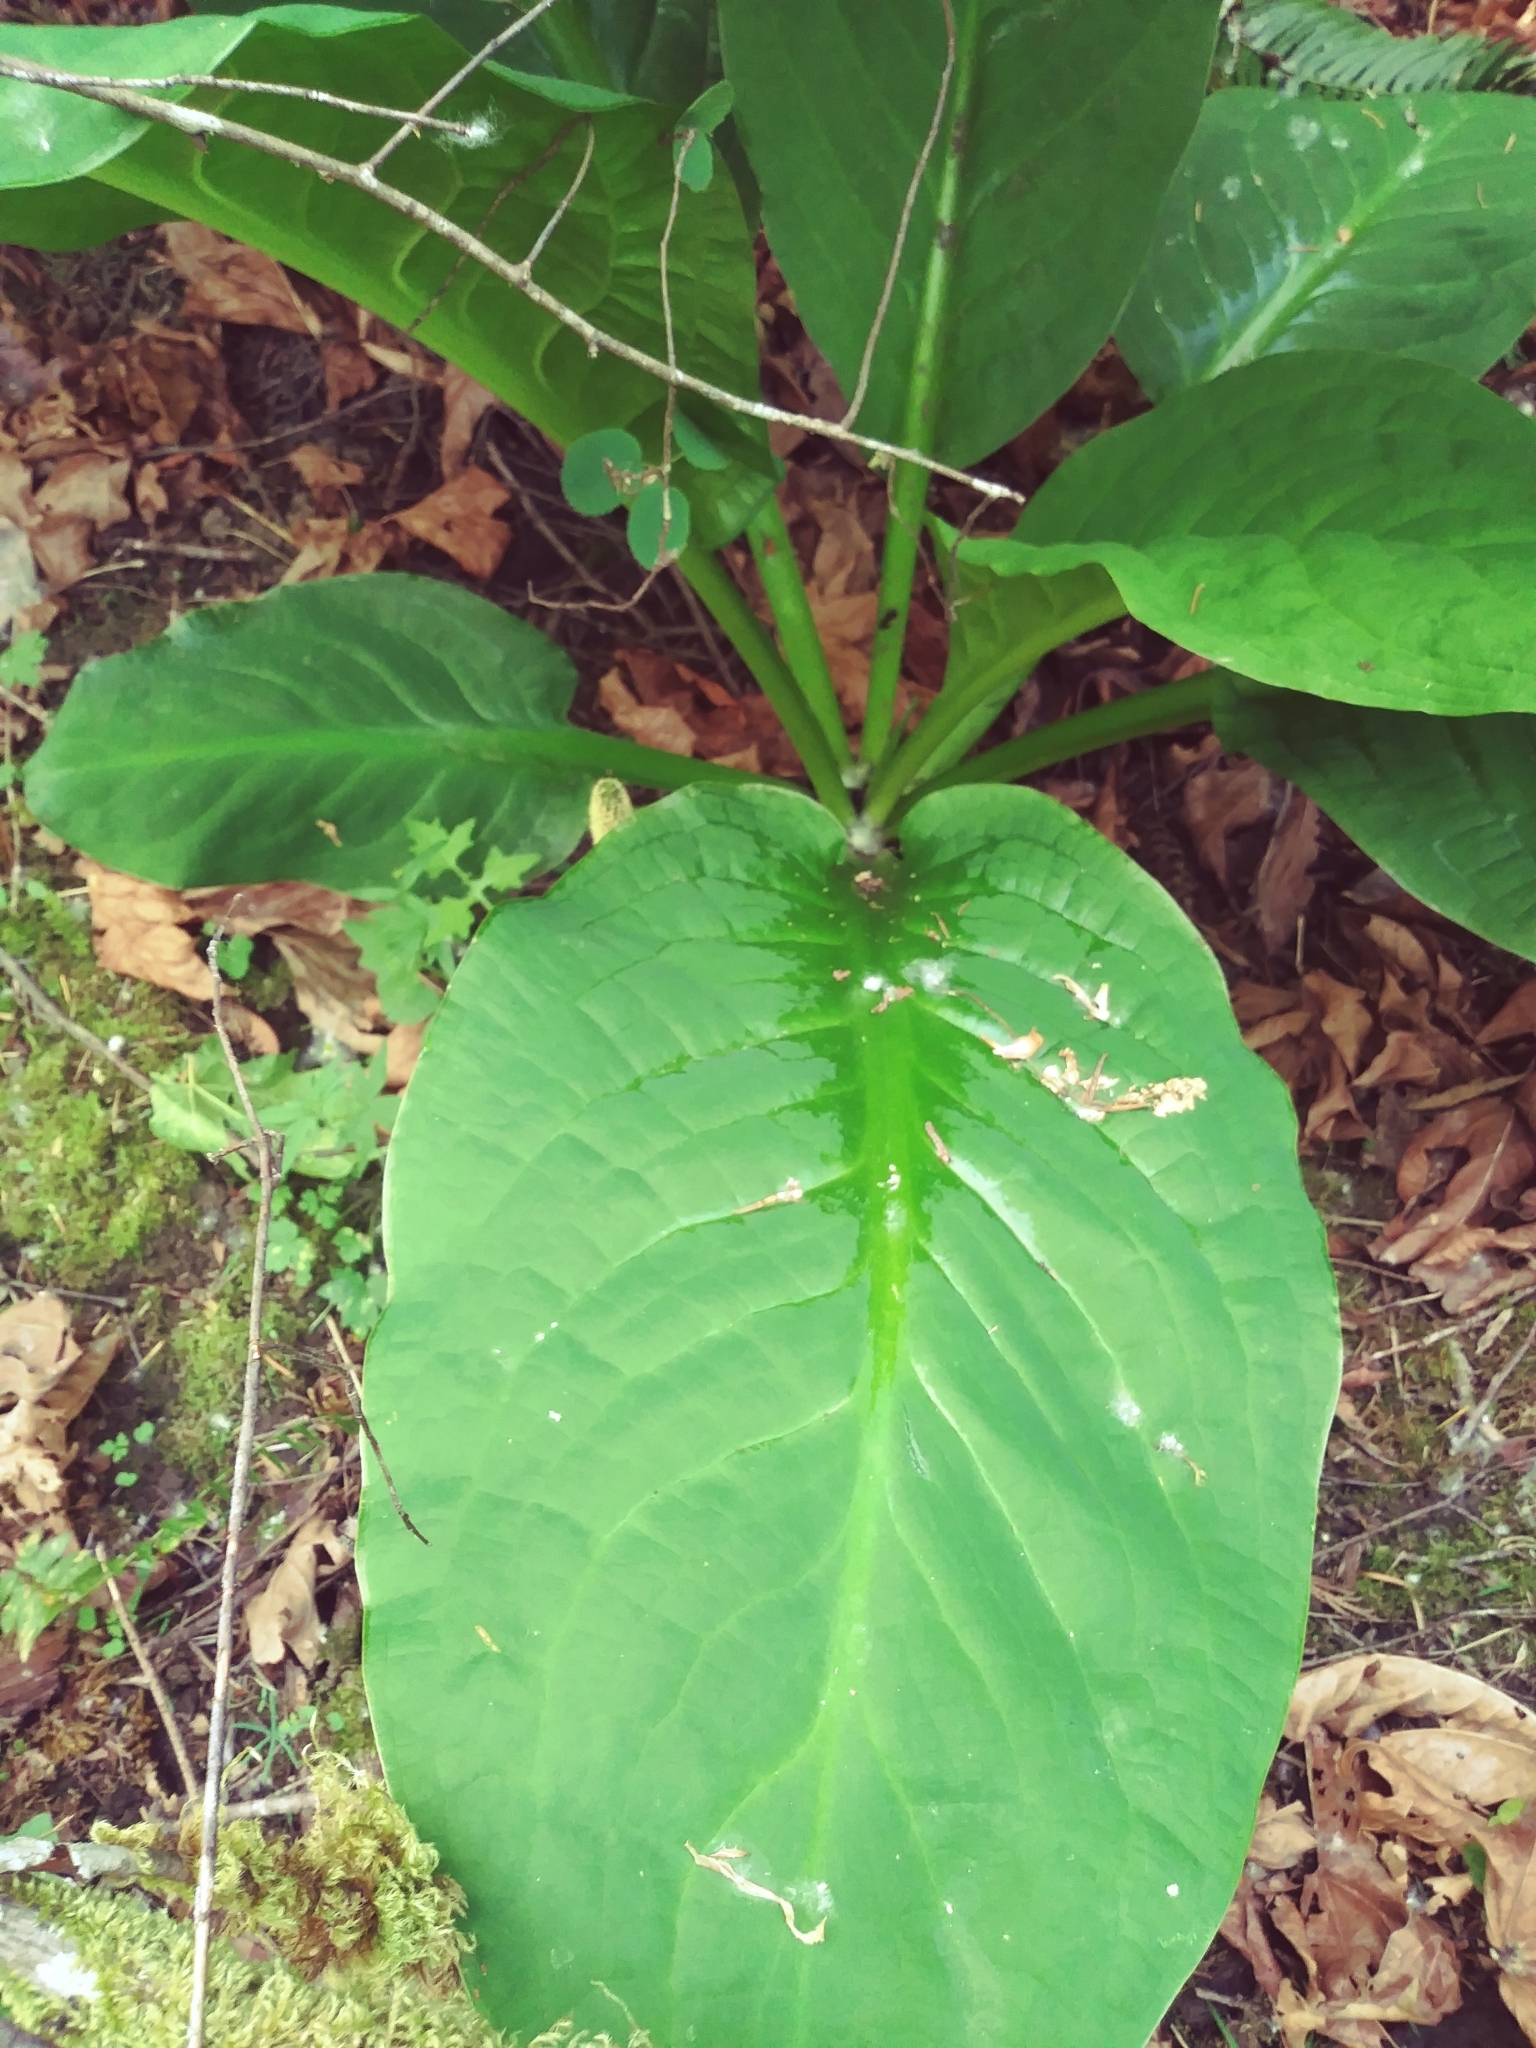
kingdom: Plantae
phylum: Tracheophyta
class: Liliopsida
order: Alismatales
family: Araceae
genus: Lysichiton
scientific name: Lysichiton americanus
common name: American skunk cabbage
